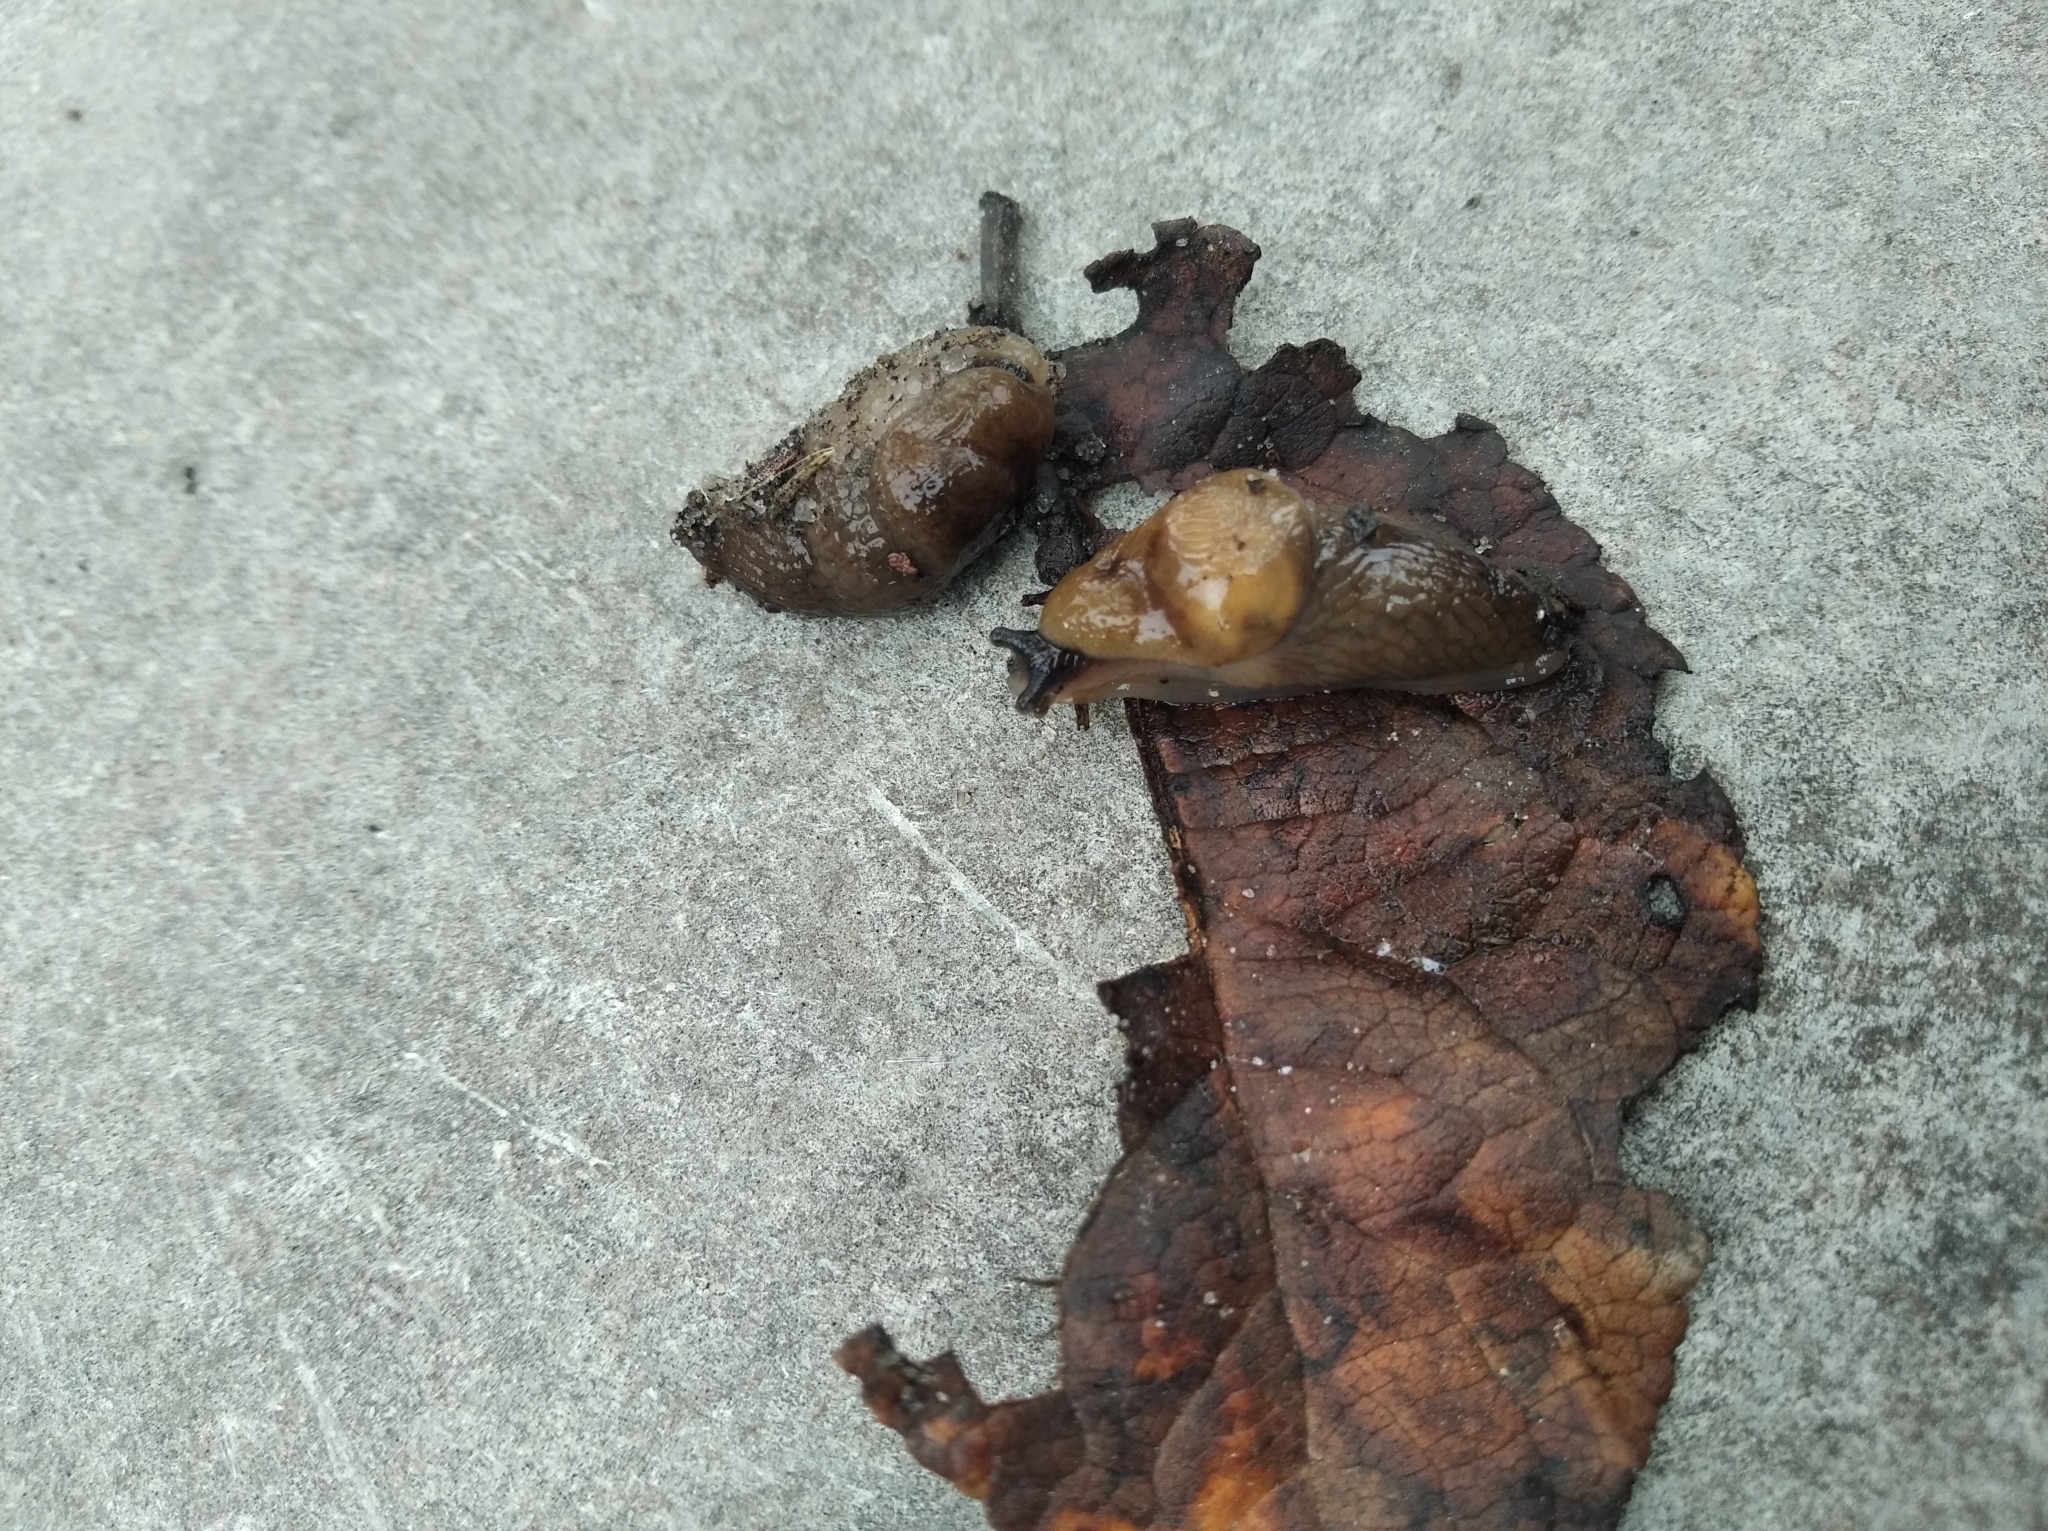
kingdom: Animalia
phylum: Mollusca
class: Gastropoda
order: Stylommatophora
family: Agriolimacidae
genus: Deroceras
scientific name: Deroceras caucasicum
